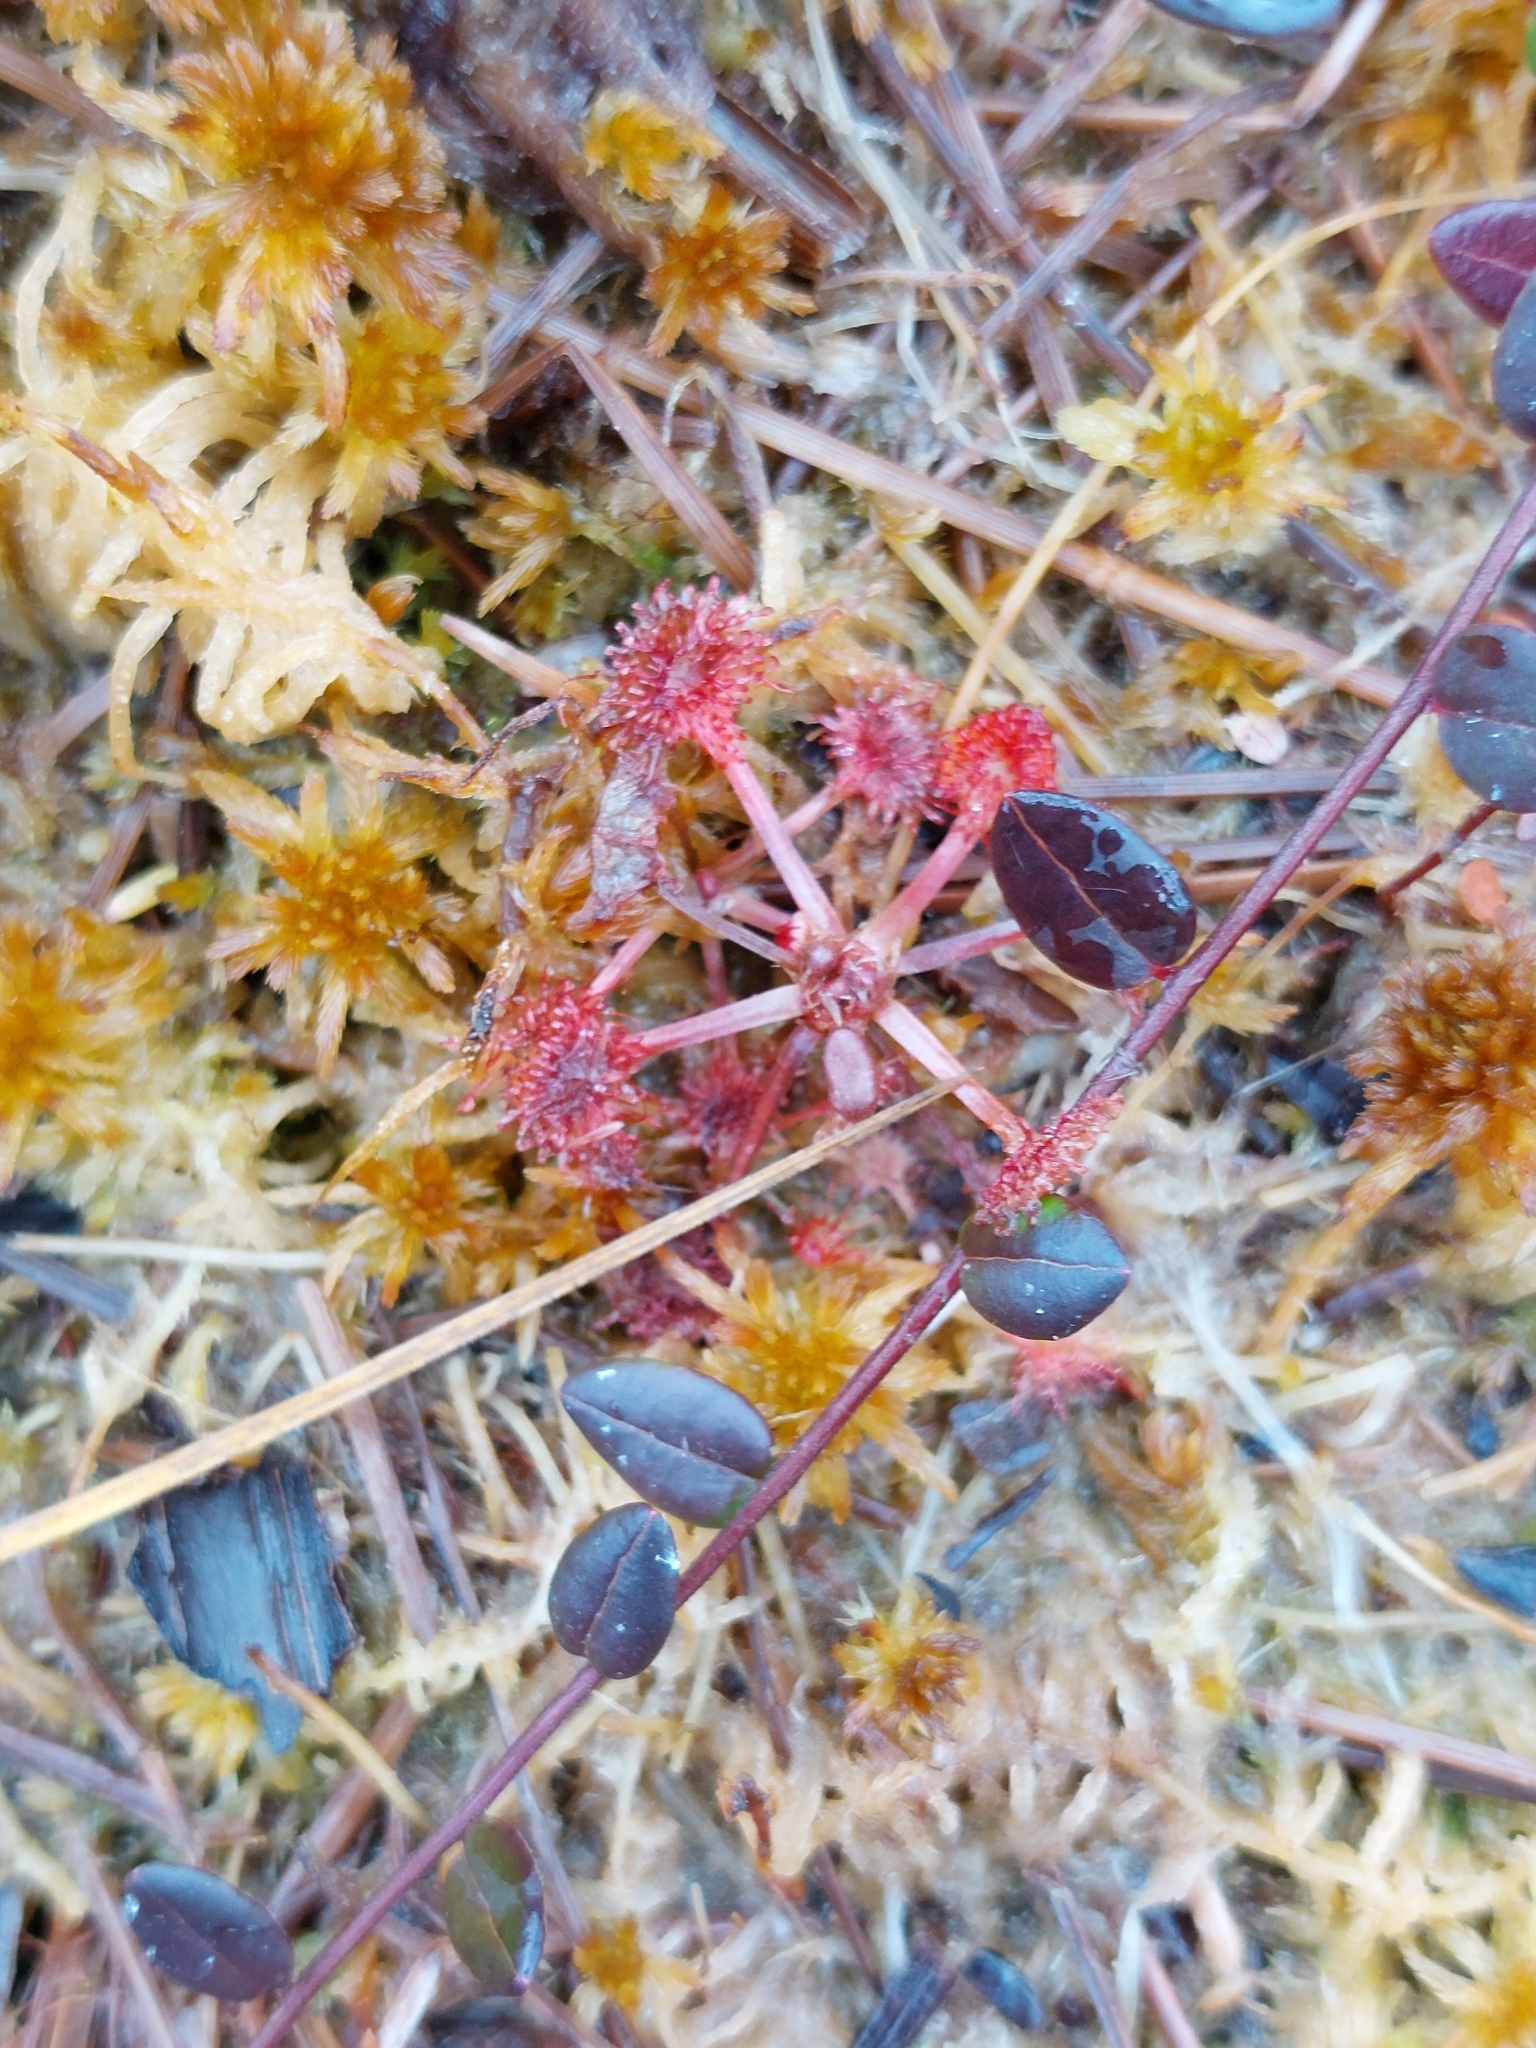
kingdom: Plantae
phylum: Tracheophyta
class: Magnoliopsida
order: Caryophyllales
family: Droseraceae
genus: Drosera
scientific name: Drosera rotundifolia
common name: Round-leaved sundew
